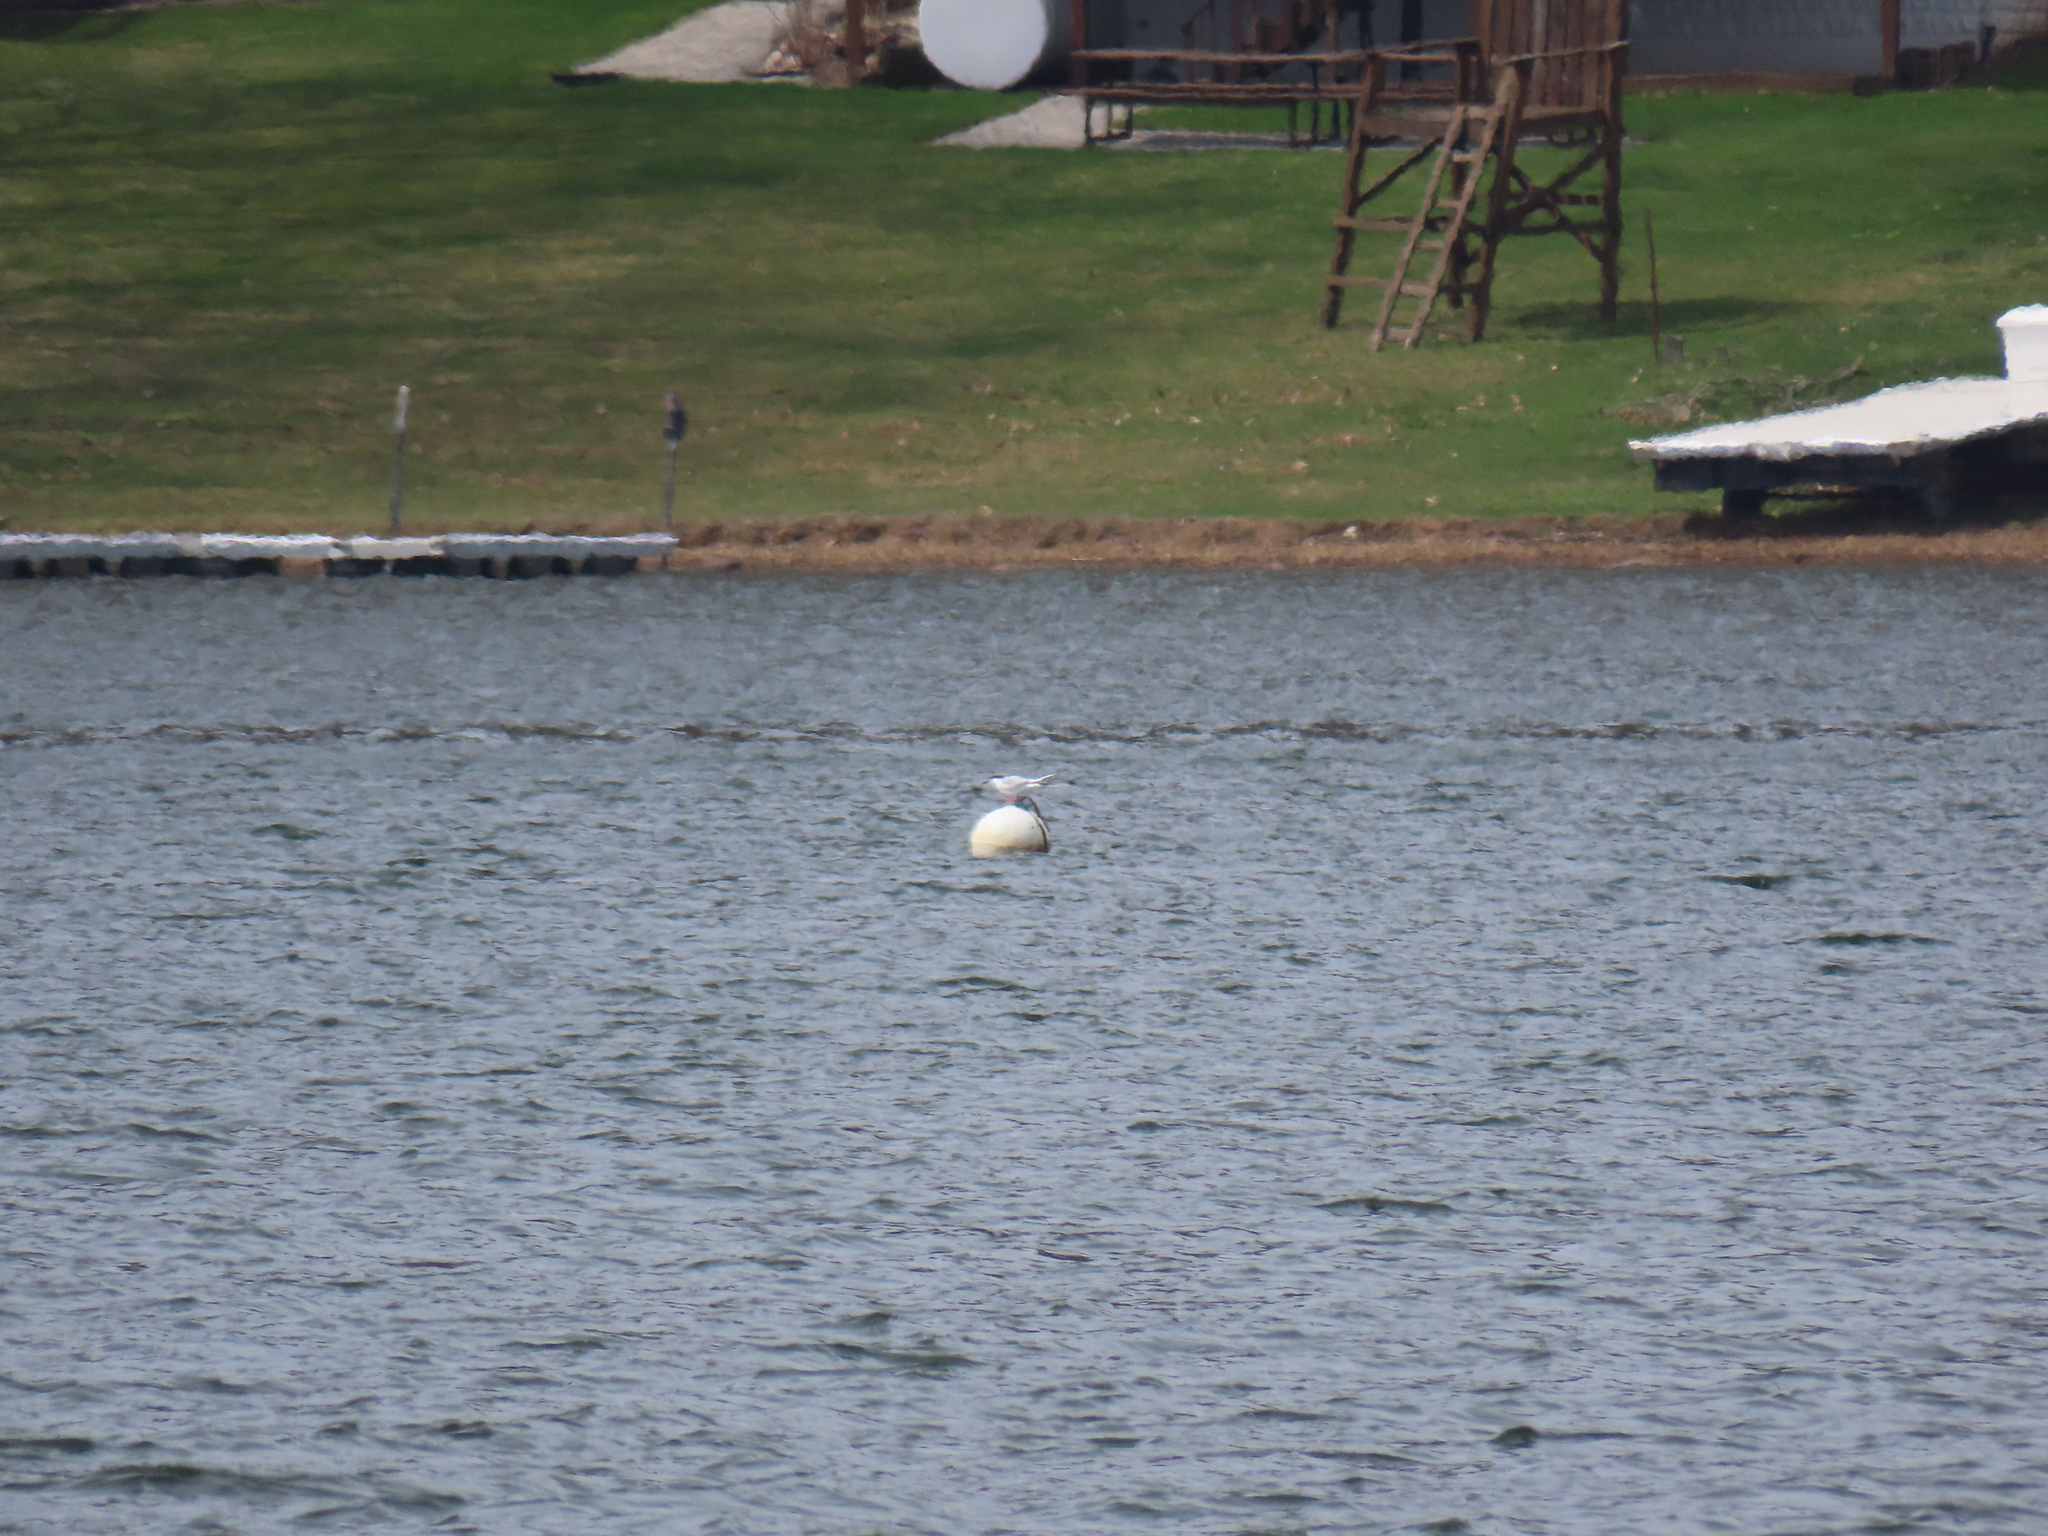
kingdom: Animalia
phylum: Chordata
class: Aves
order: Charadriiformes
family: Laridae
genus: Sterna
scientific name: Sterna forsteri
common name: Forster's tern
